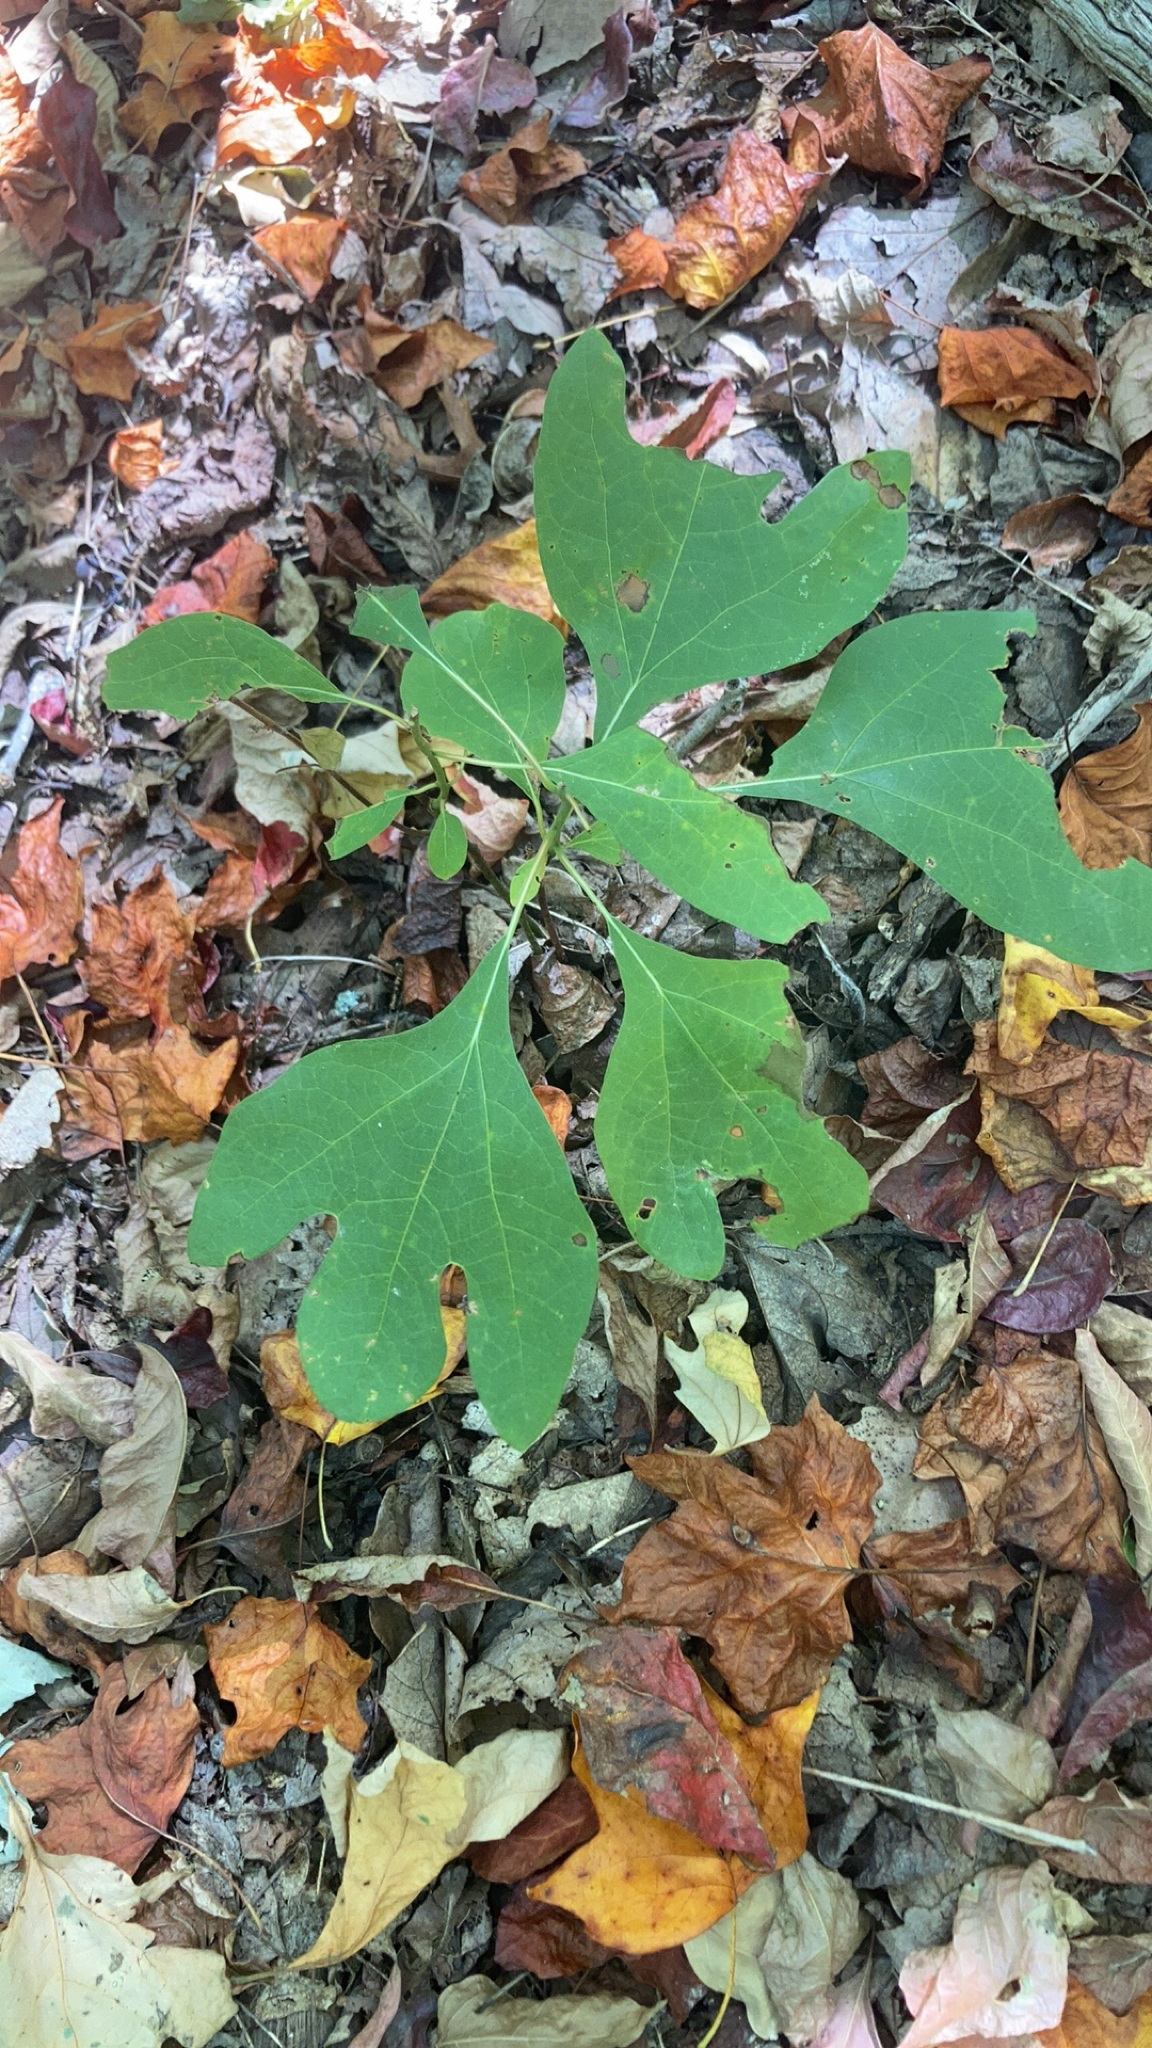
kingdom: Plantae
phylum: Tracheophyta
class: Magnoliopsida
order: Laurales
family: Lauraceae
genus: Sassafras
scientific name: Sassafras albidum
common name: Sassafras
